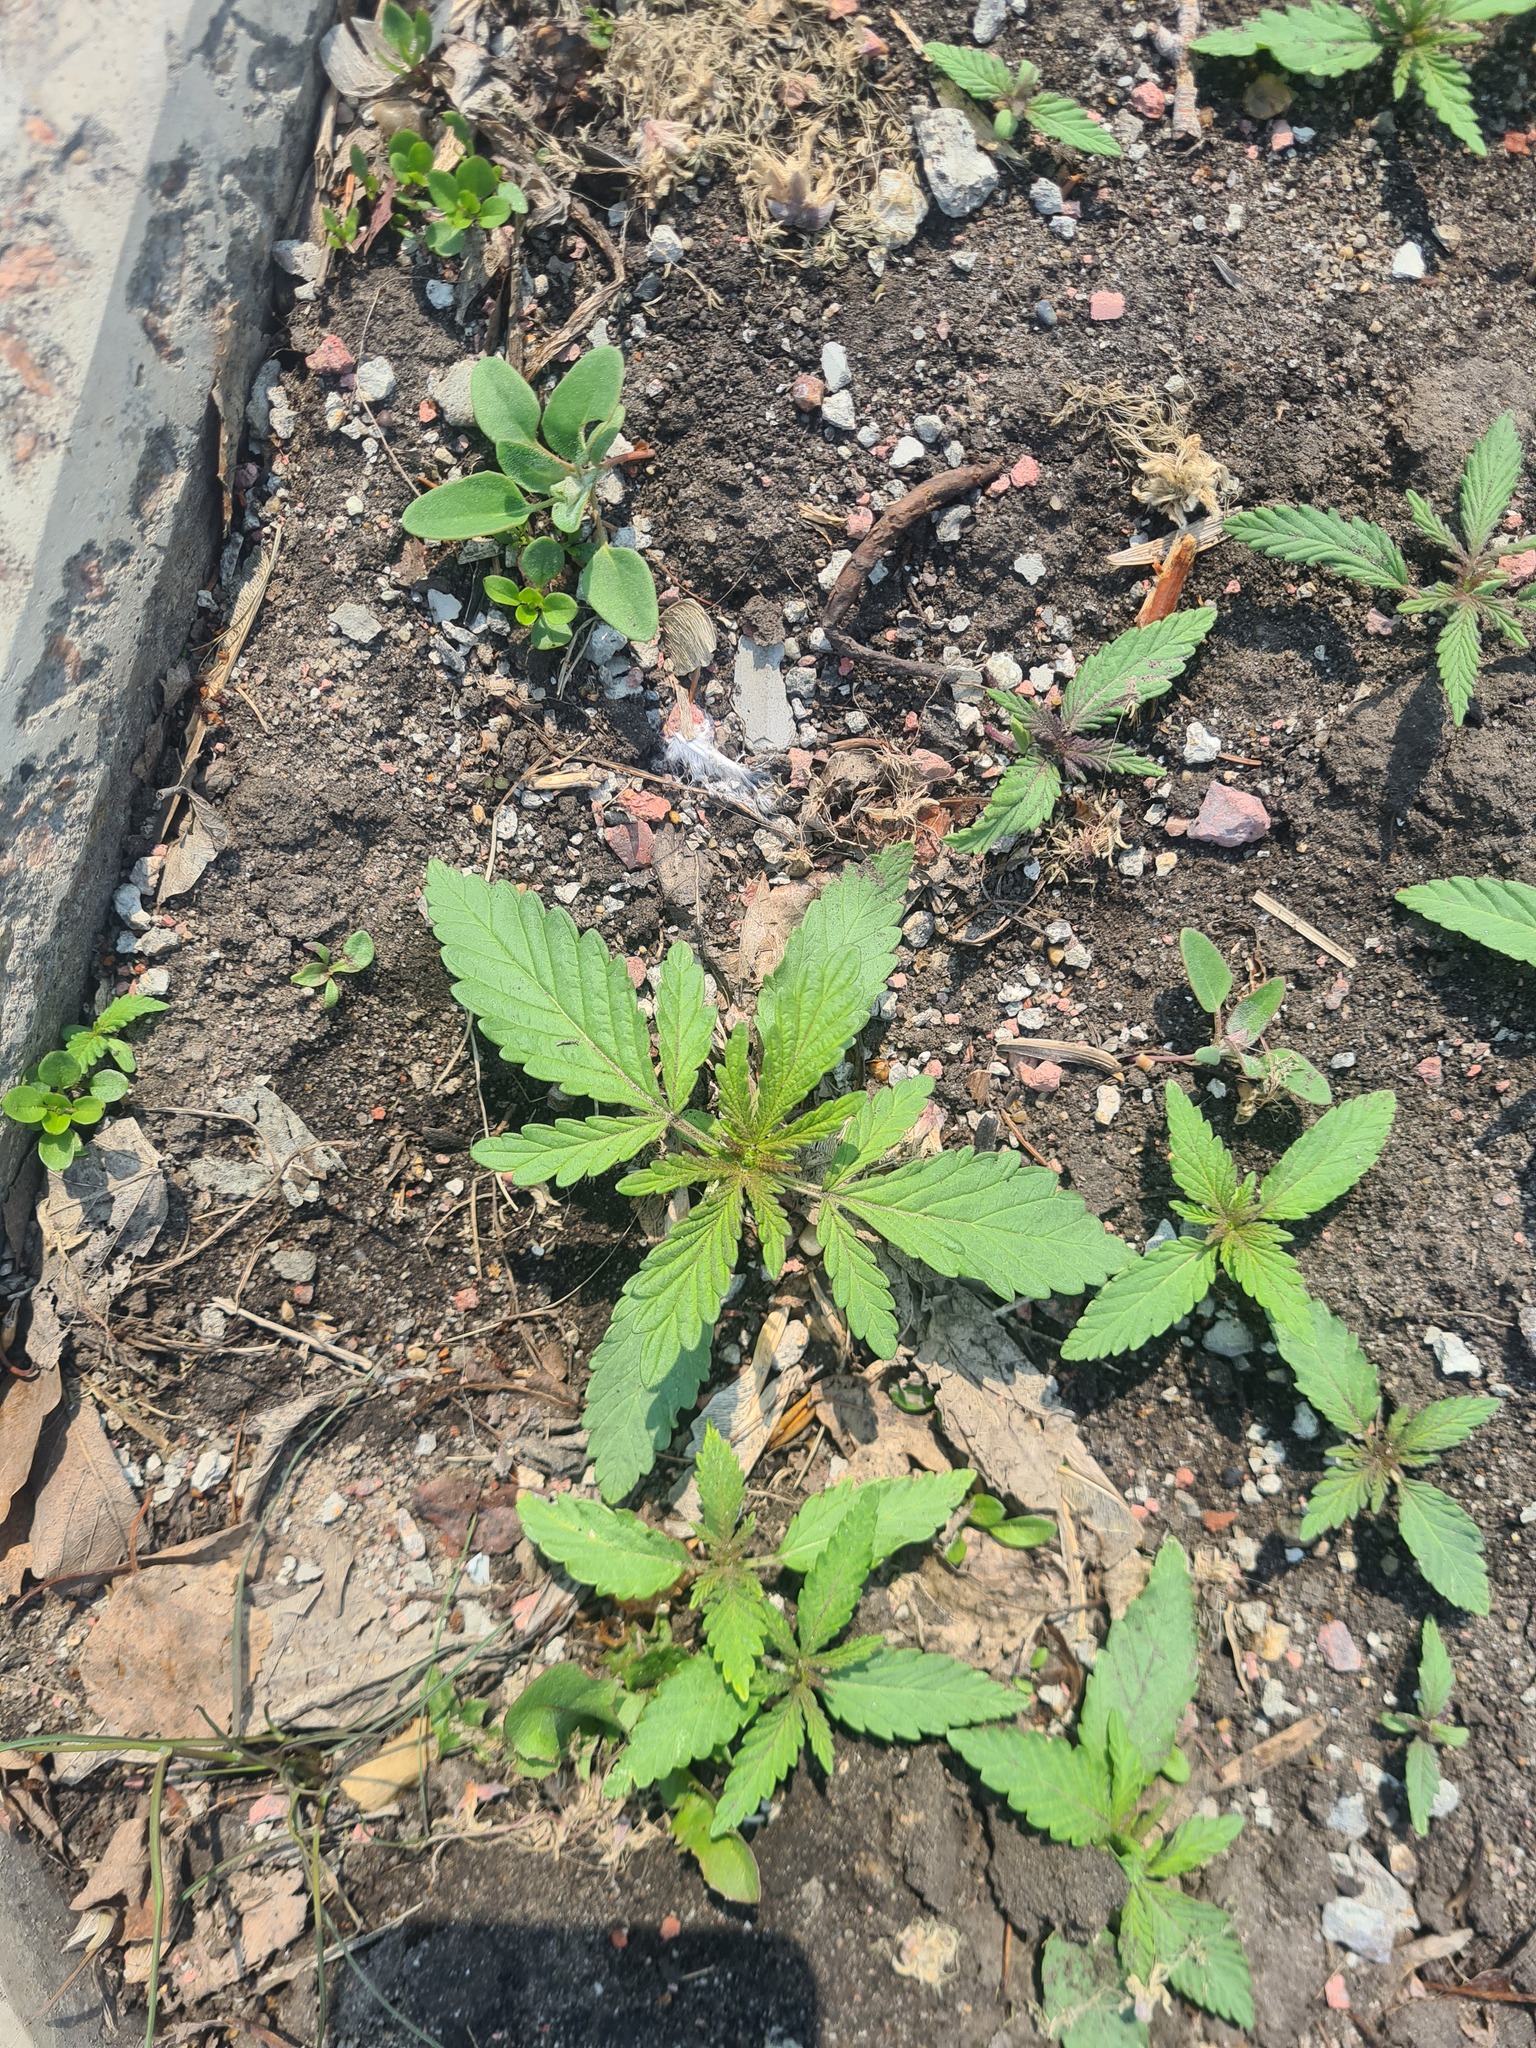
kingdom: Plantae
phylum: Tracheophyta
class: Magnoliopsida
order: Rosales
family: Cannabaceae
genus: Cannabis
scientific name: Cannabis sativa
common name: Hemp
